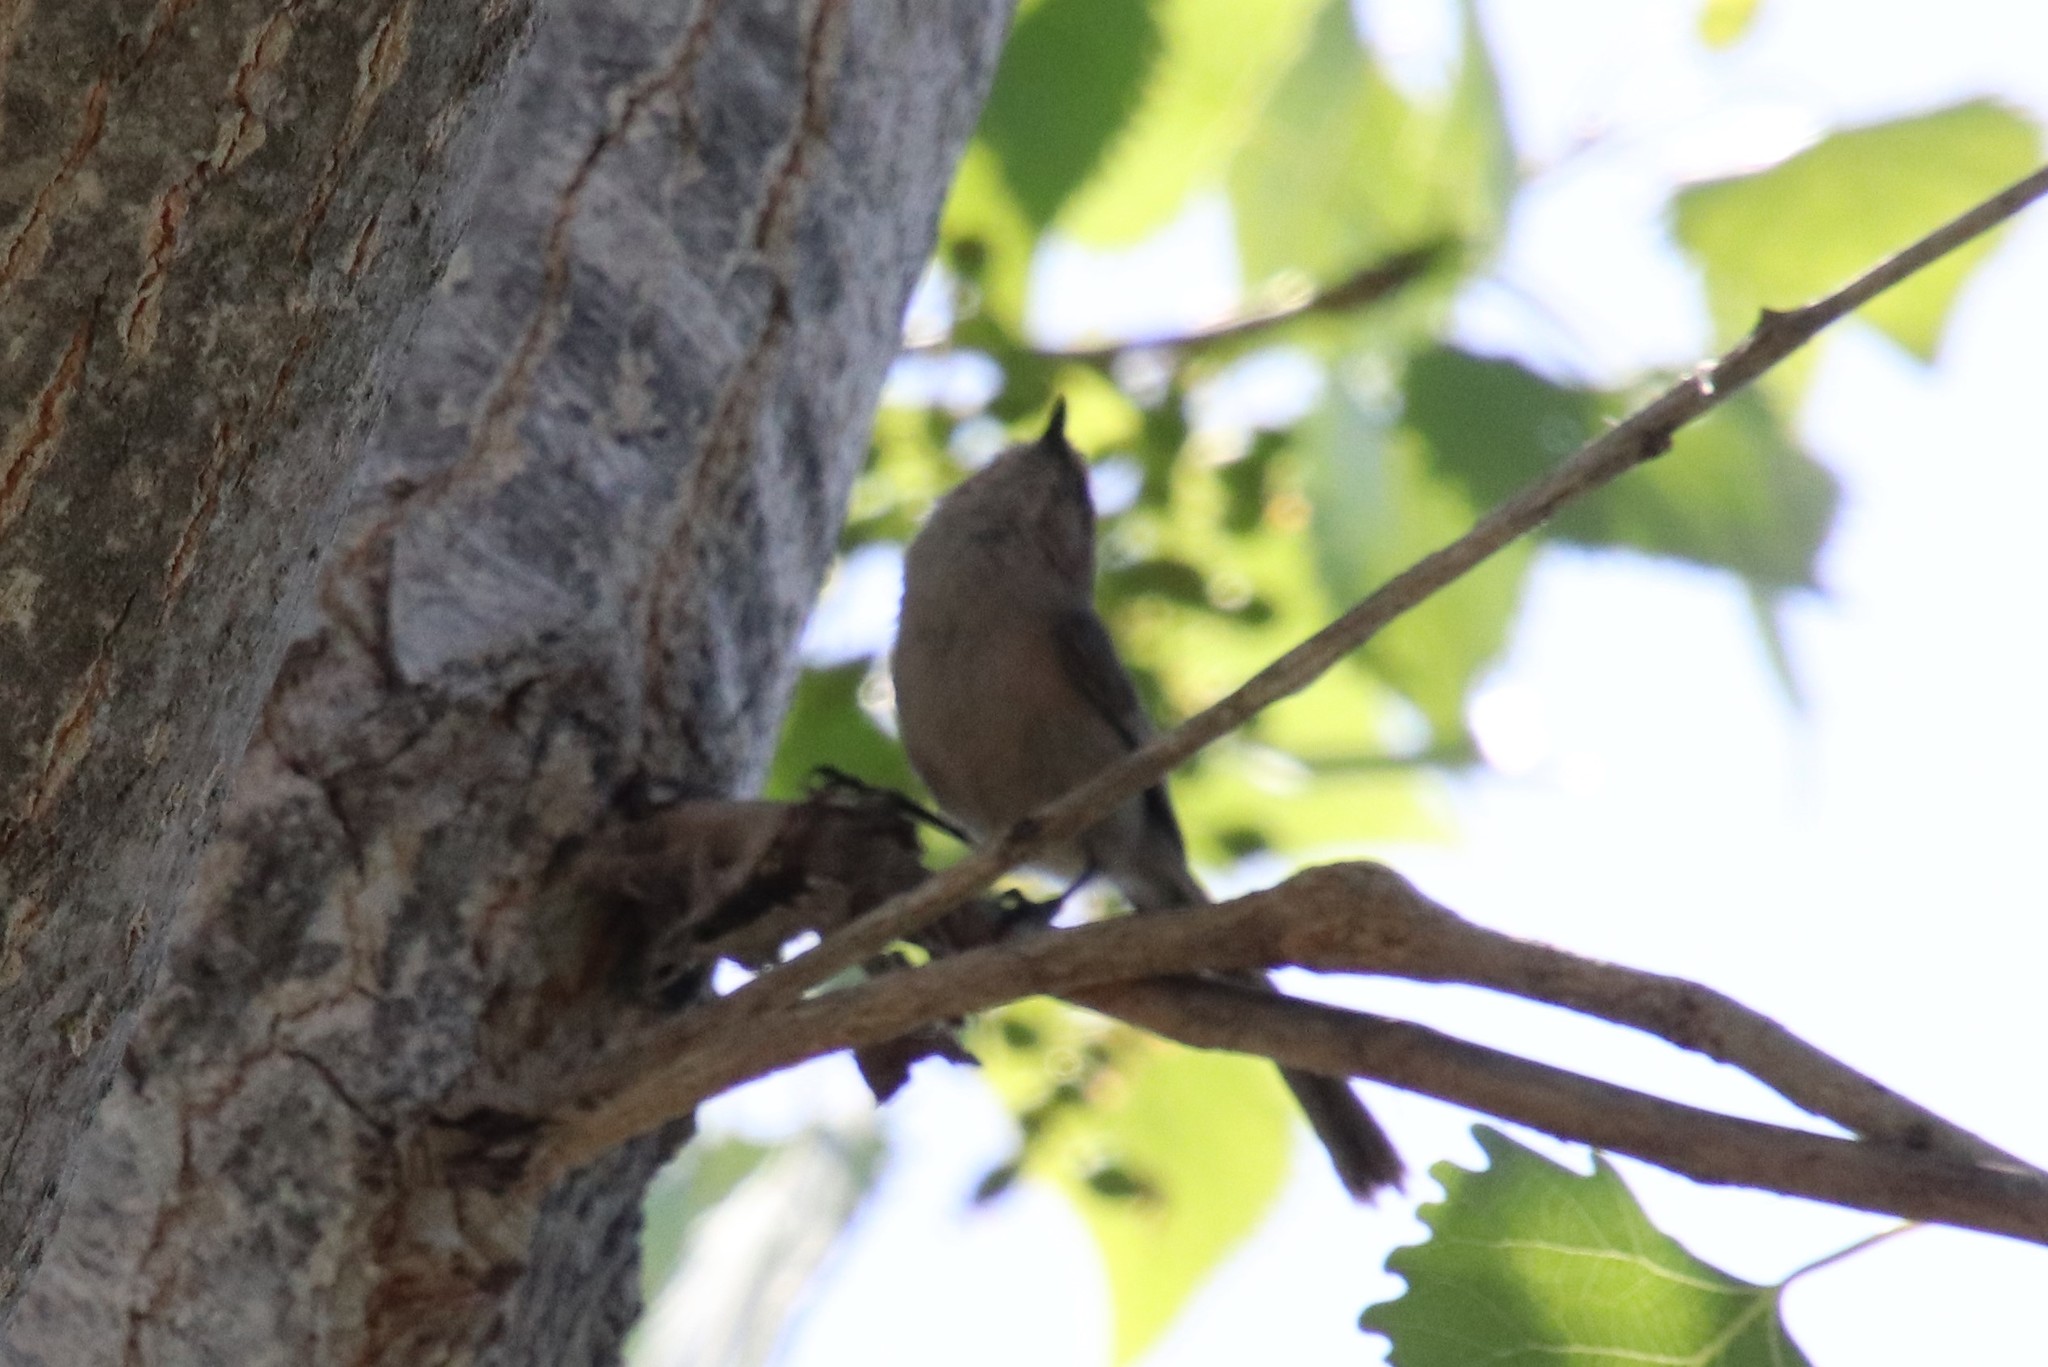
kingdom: Animalia
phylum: Chordata
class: Aves
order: Passeriformes
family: Aegithalidae
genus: Psaltriparus
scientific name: Psaltriparus minimus
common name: American bushtit
